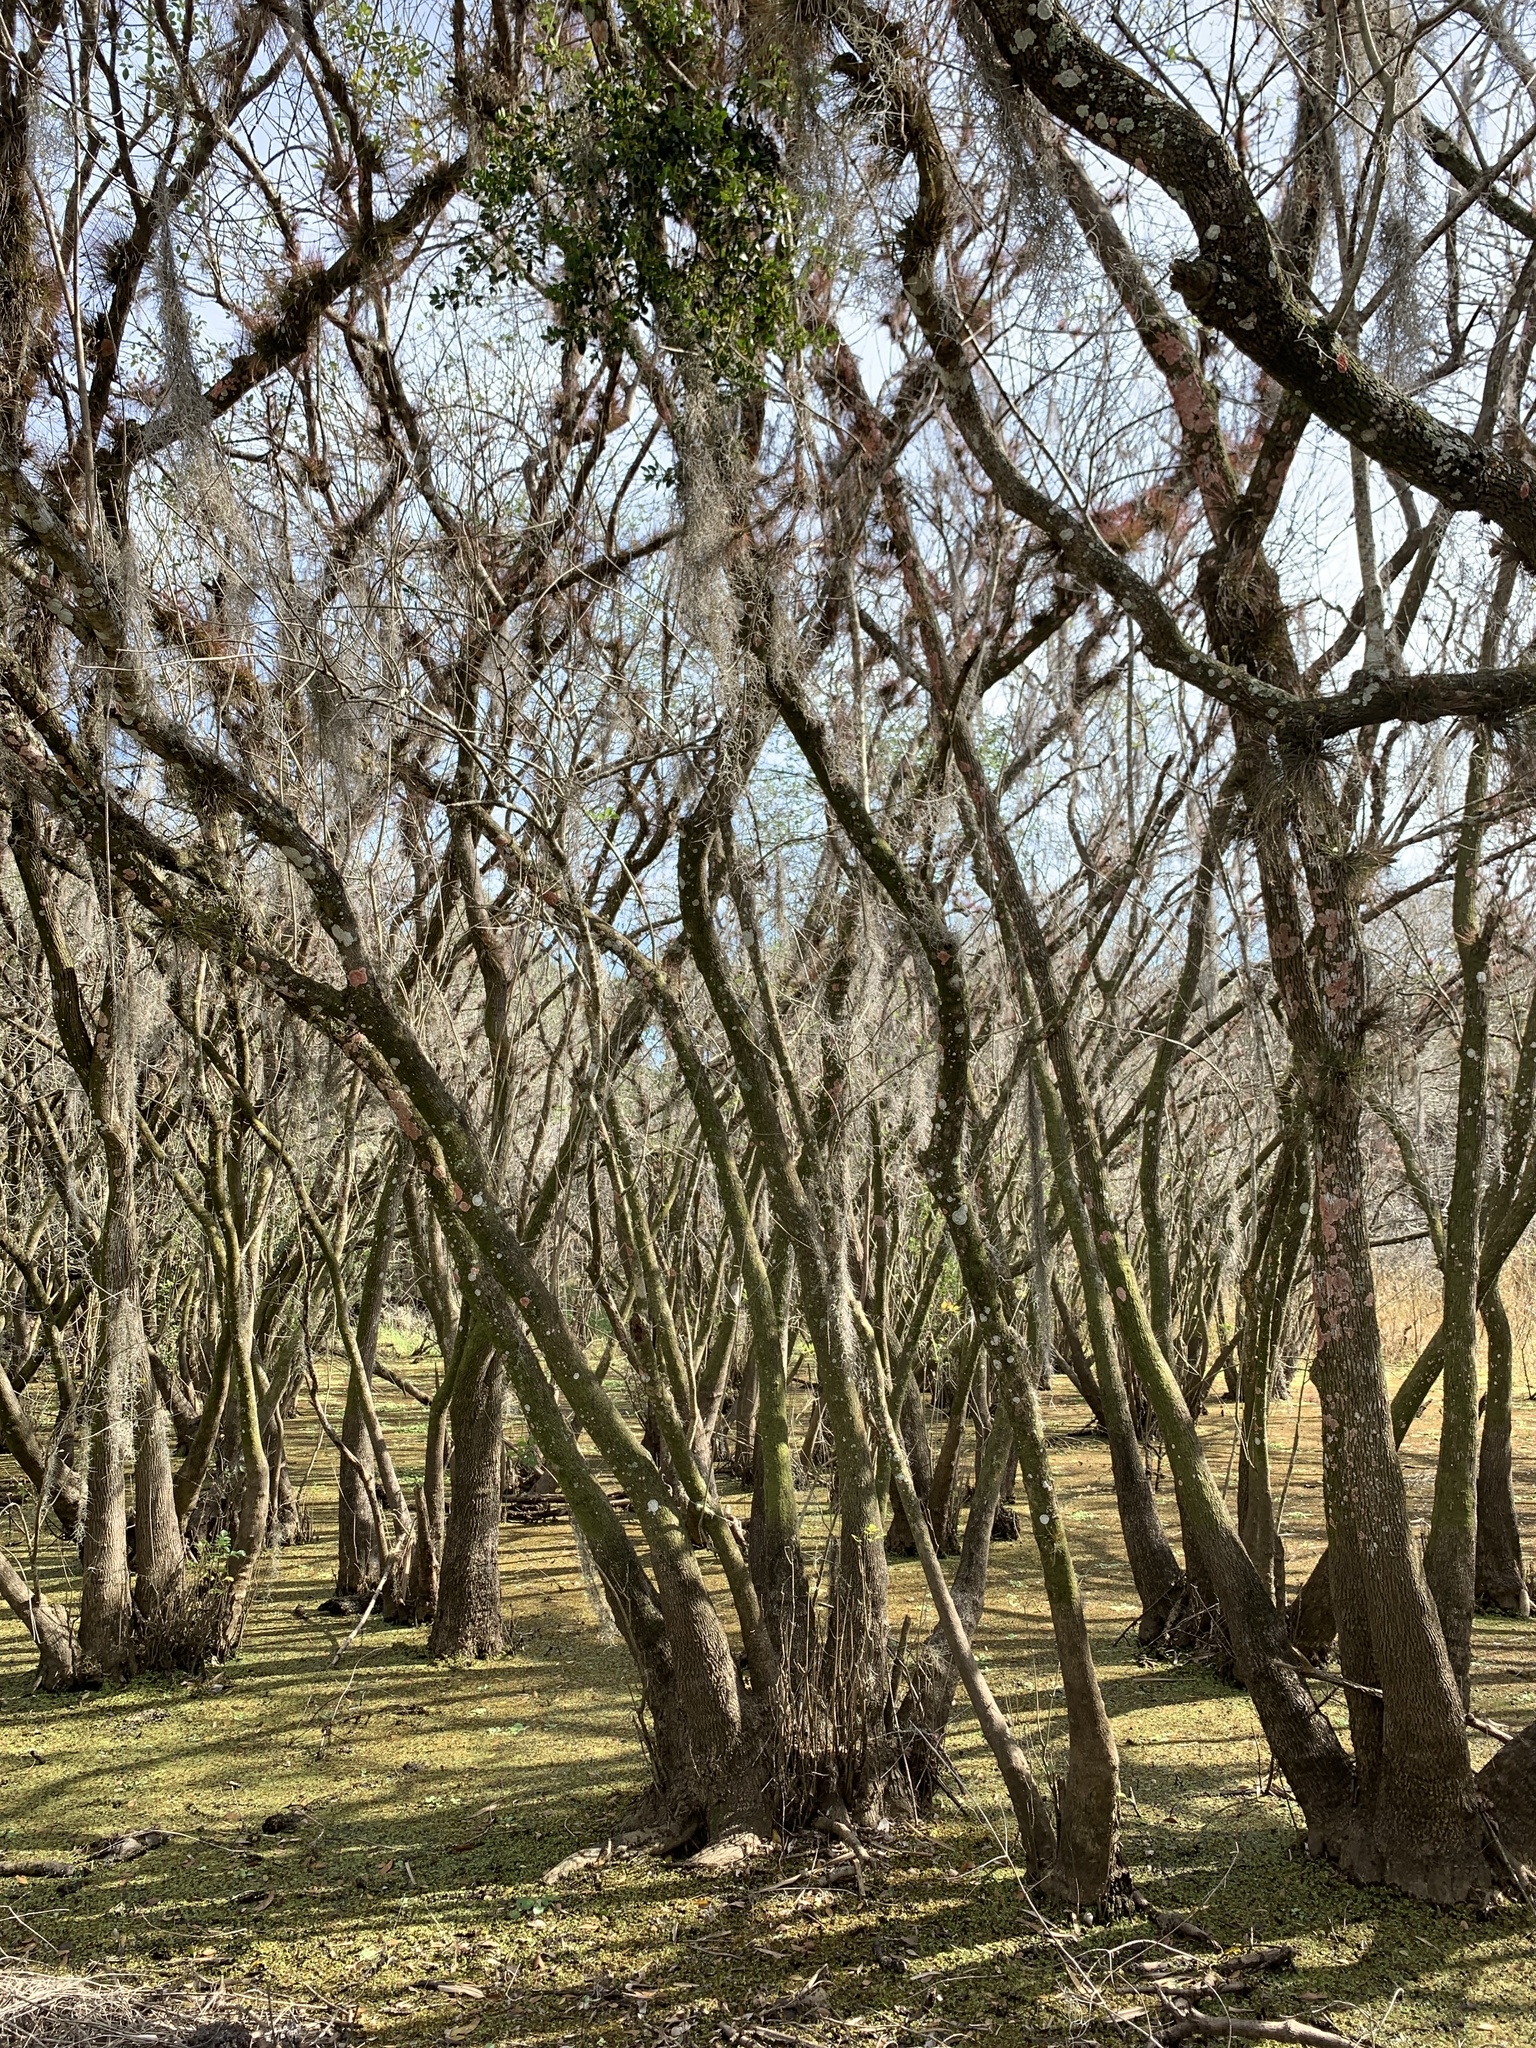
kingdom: Plantae
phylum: Tracheophyta
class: Magnoliopsida
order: Lamiales
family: Oleaceae
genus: Fraxinus
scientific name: Fraxinus caroliniana
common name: Carolina ash
